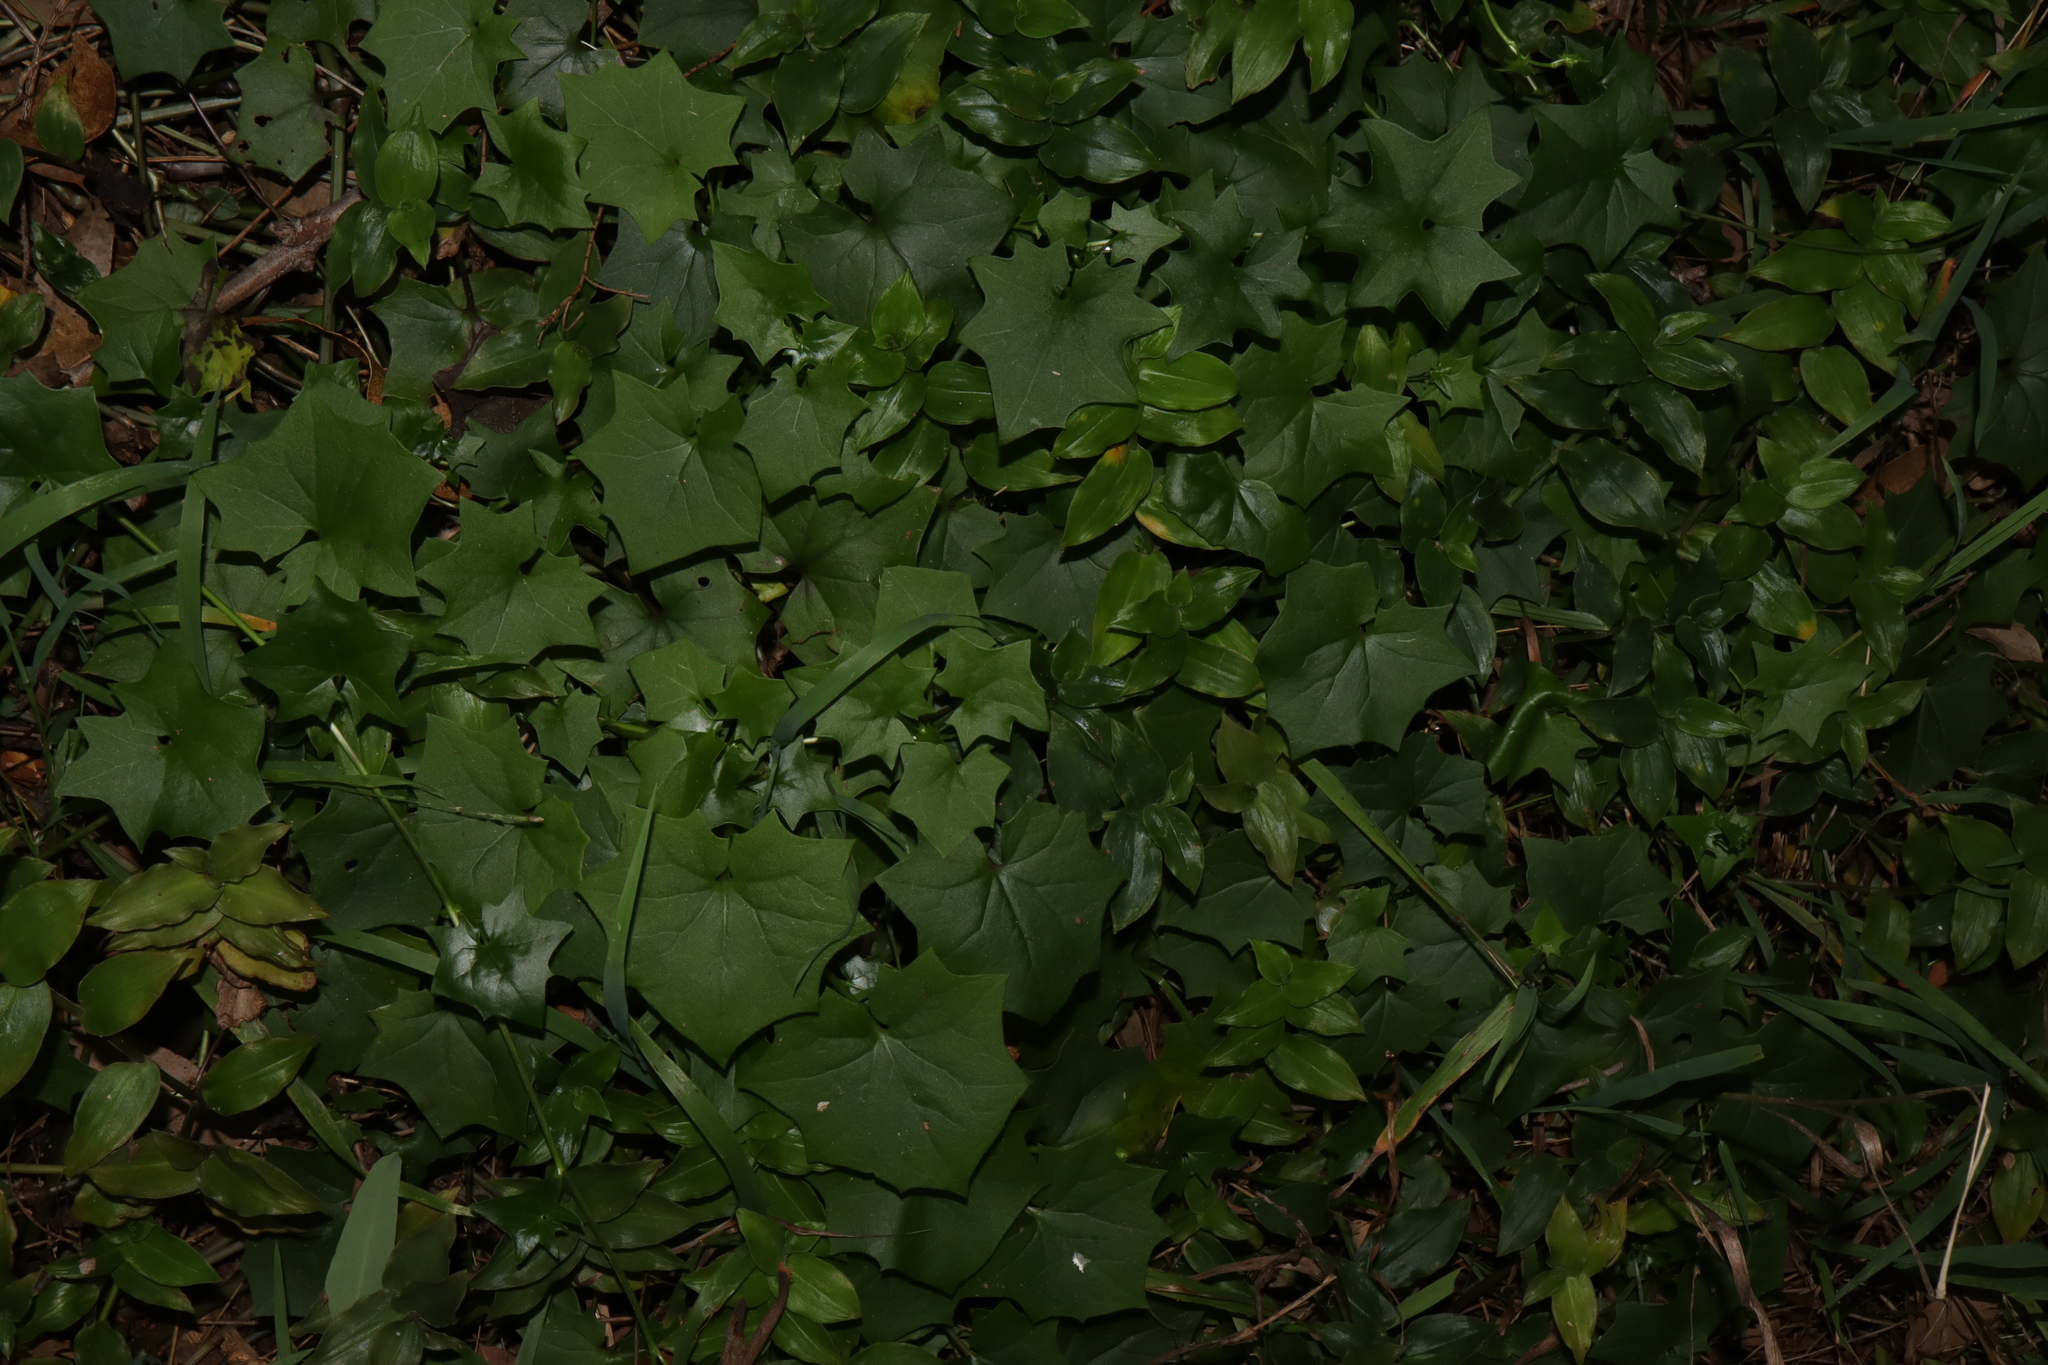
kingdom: Plantae
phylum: Tracheophyta
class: Magnoliopsida
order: Asterales
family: Asteraceae
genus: Delairea
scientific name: Delairea odorata
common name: Cape-ivy
